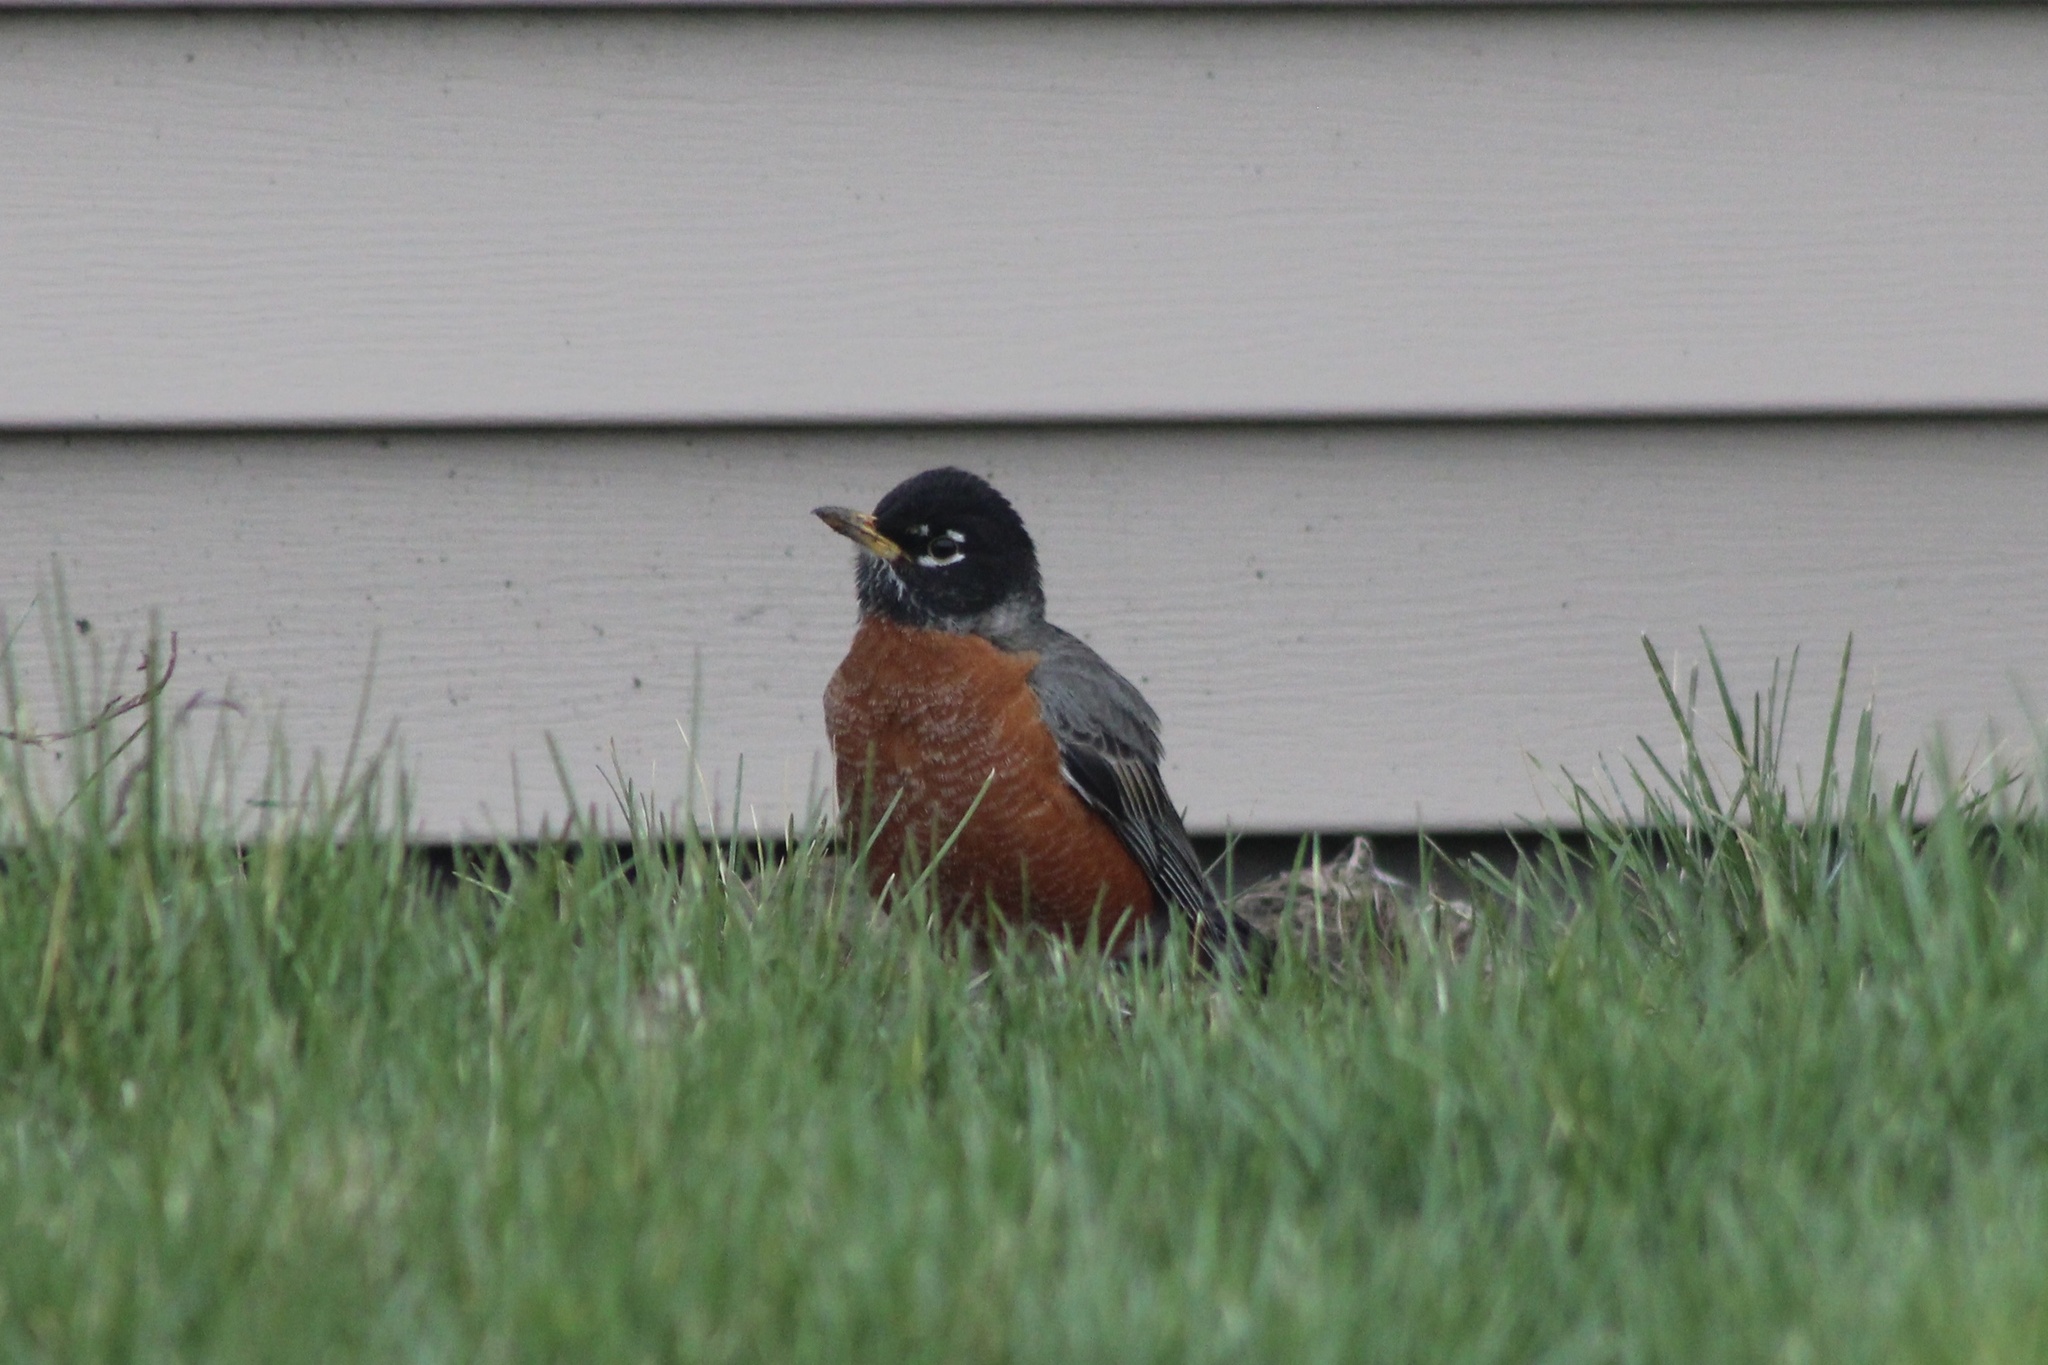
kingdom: Animalia
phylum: Chordata
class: Aves
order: Passeriformes
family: Turdidae
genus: Turdus
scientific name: Turdus migratorius
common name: American robin
